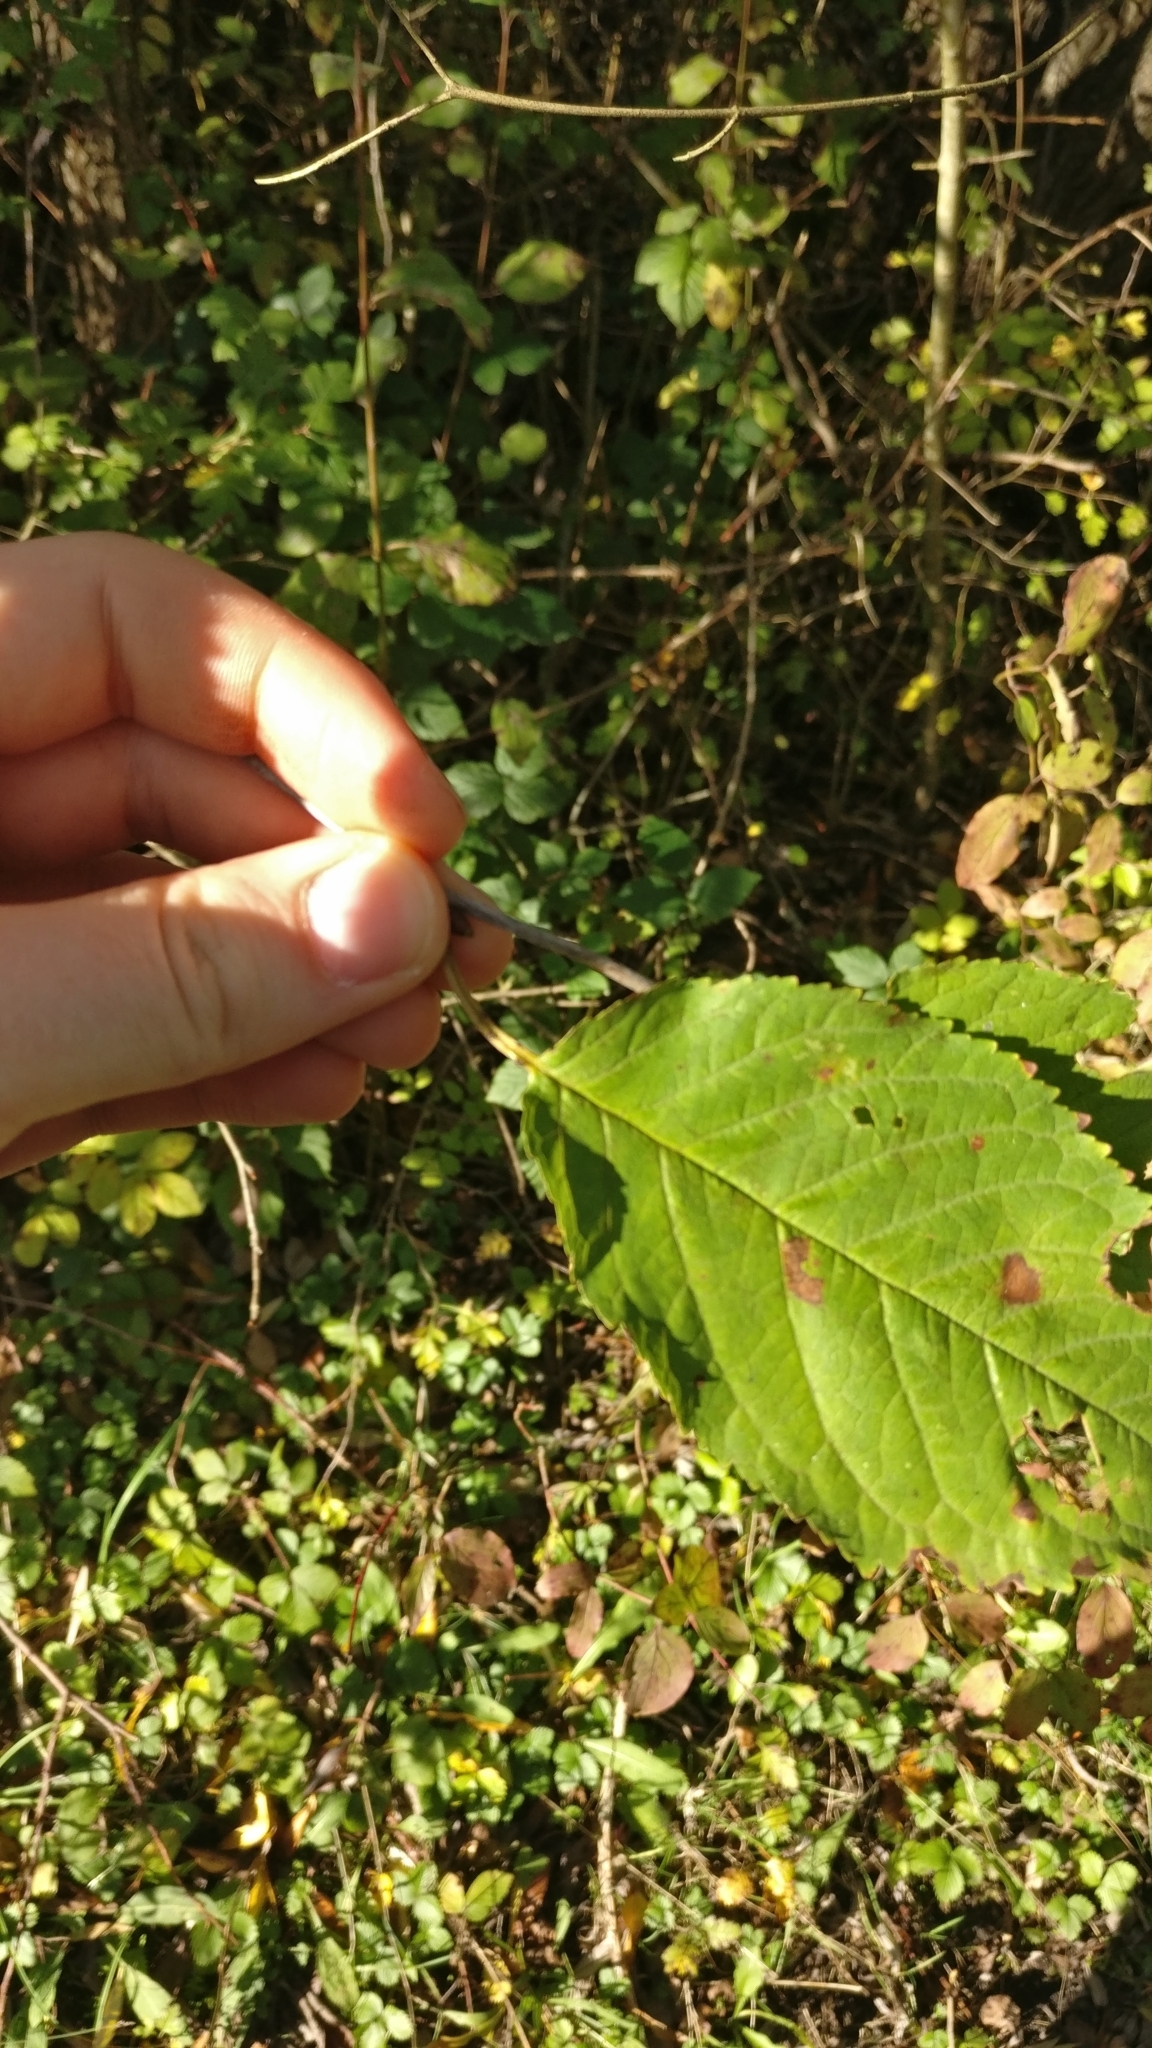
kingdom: Plantae
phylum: Tracheophyta
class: Magnoliopsida
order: Rosales
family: Rosaceae
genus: Prunus
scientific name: Prunus avium
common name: Sweet cherry
